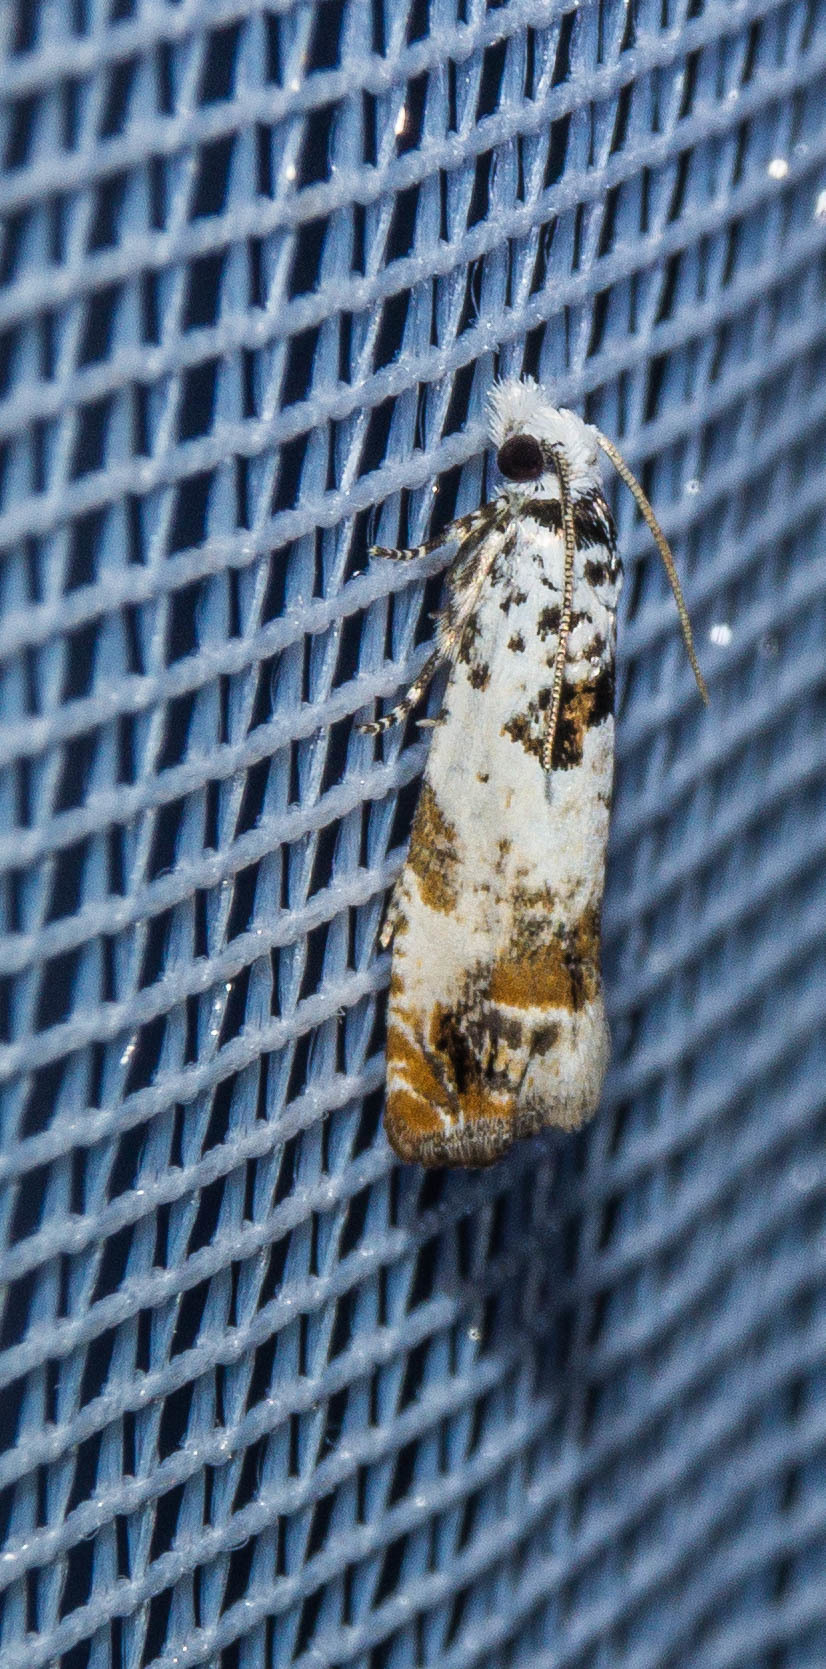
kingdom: Animalia
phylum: Arthropoda
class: Insecta
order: Lepidoptera
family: Tortricidae
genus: Eucosma
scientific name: Eucosma campoliliana
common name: Marbled bell
